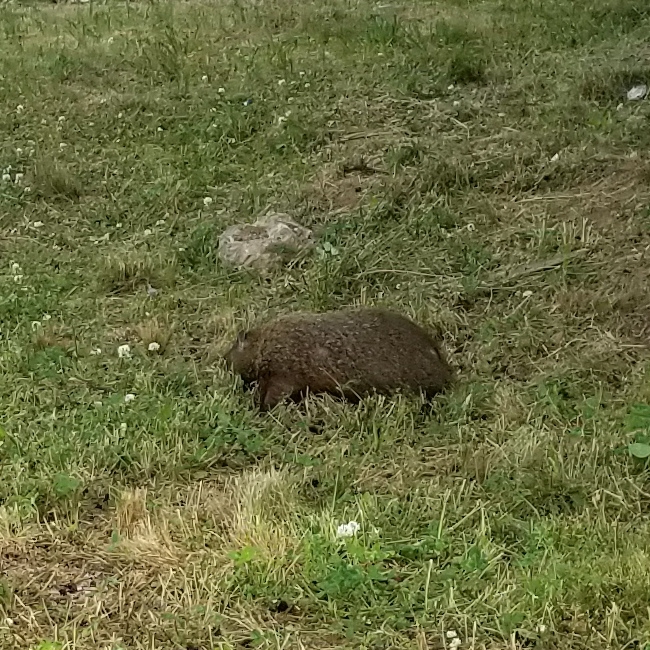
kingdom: Animalia
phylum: Chordata
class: Mammalia
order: Rodentia
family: Sciuridae
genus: Marmota
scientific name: Marmota monax
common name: Groundhog
